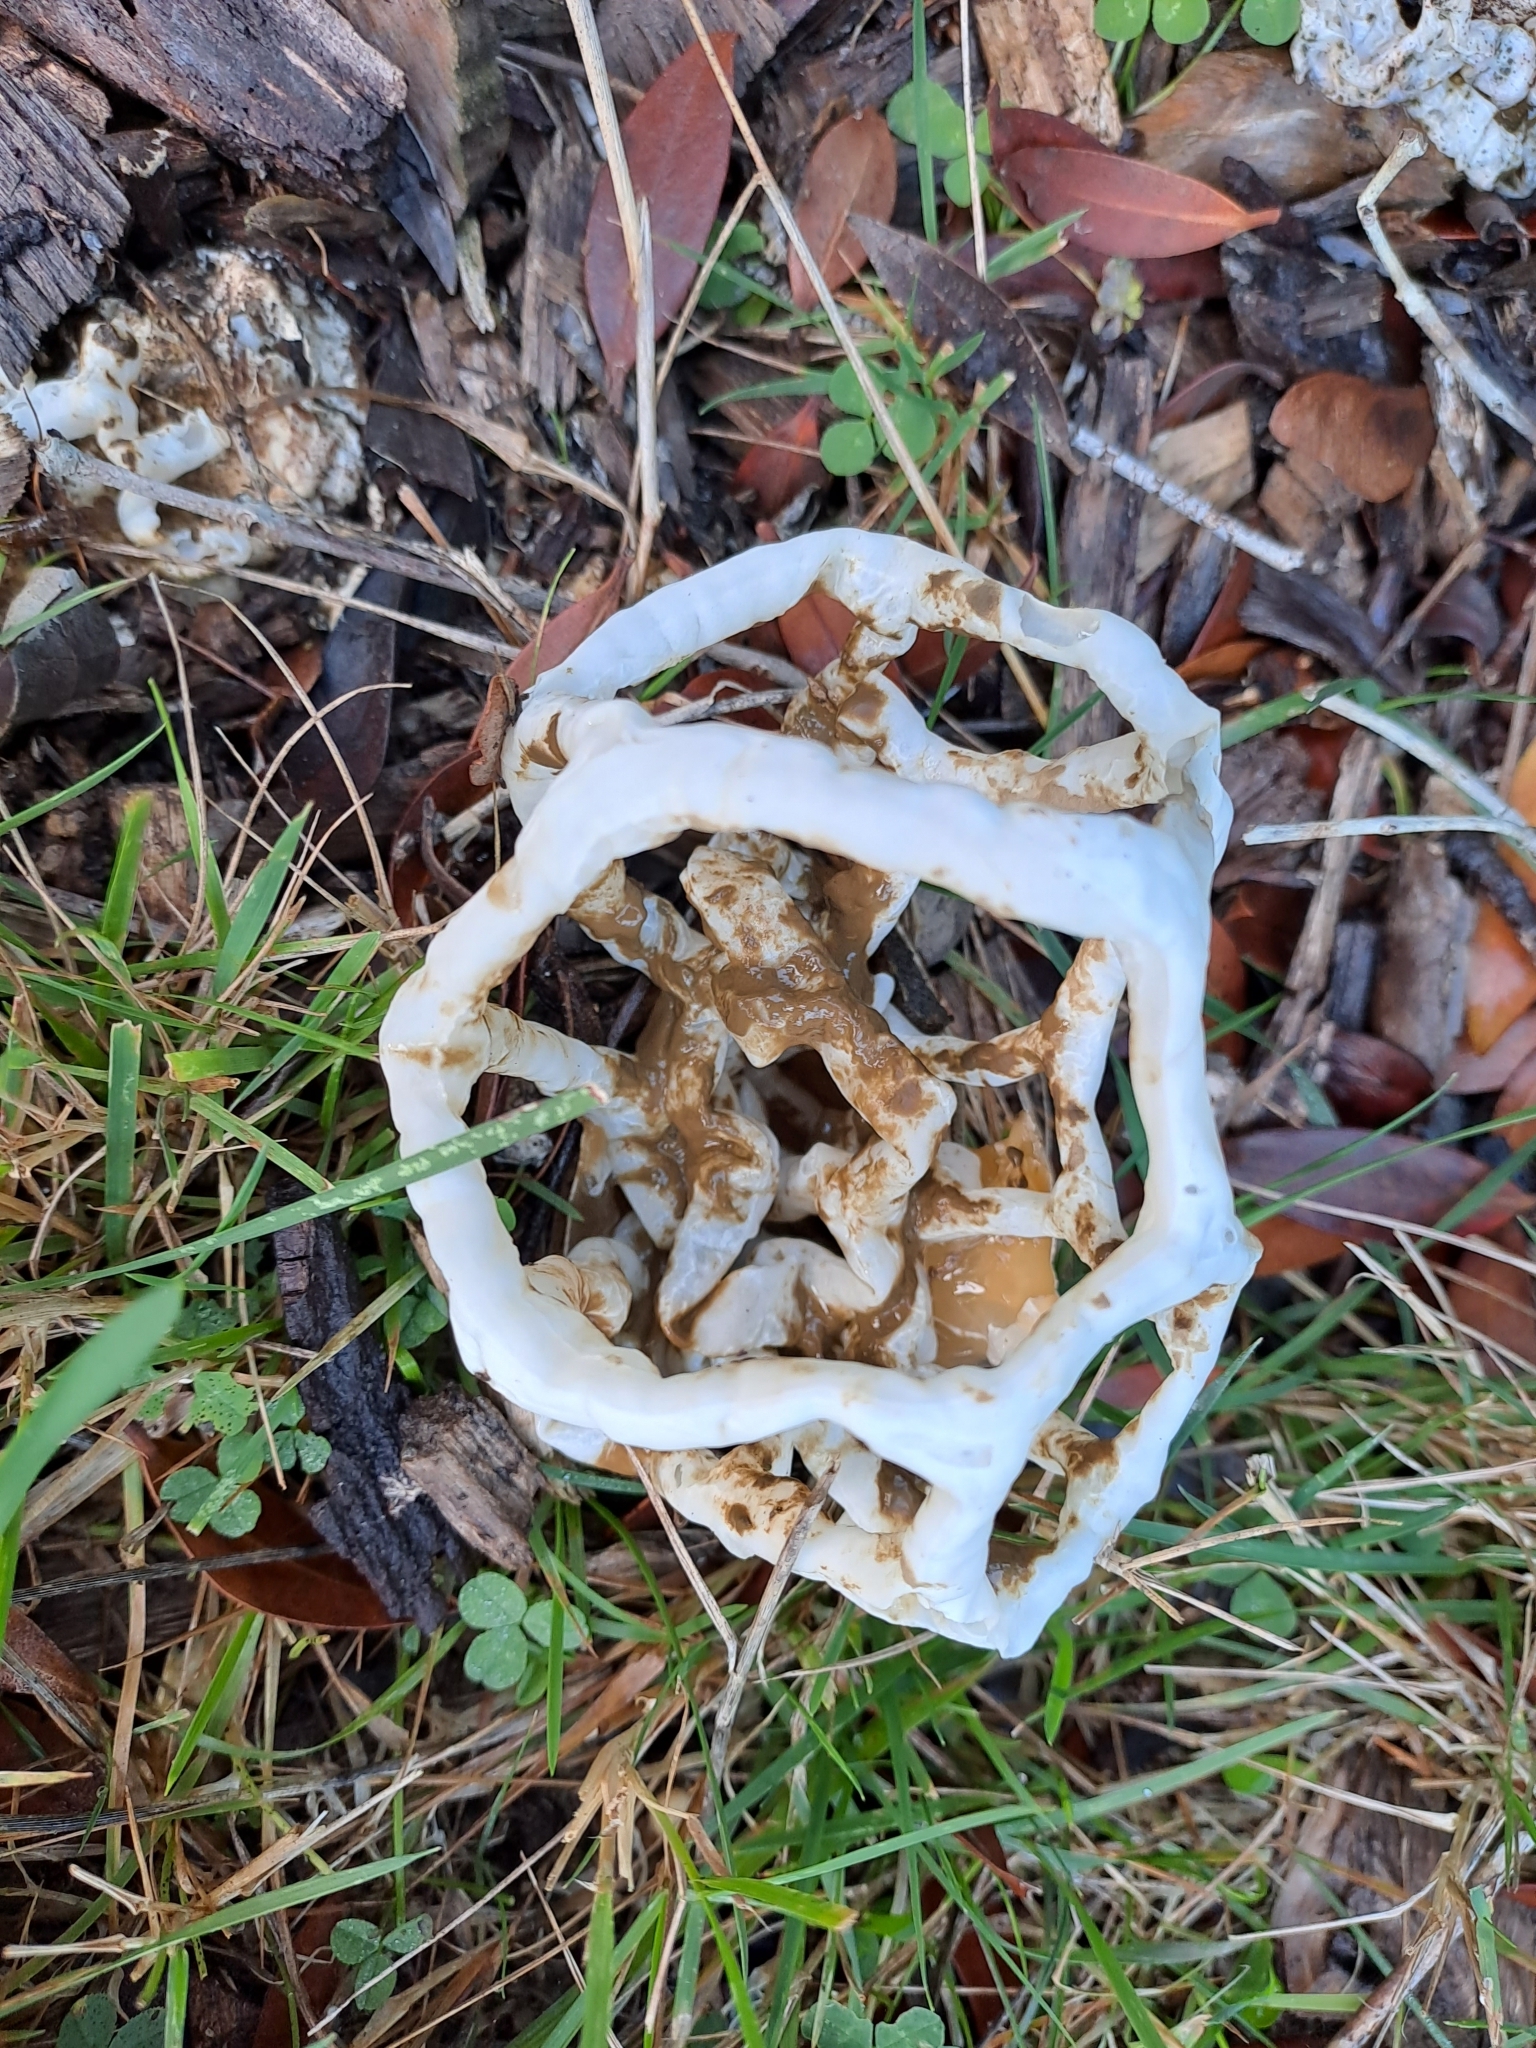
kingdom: Fungi
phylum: Basidiomycota
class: Agaricomycetes
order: Phallales
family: Phallaceae
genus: Ileodictyon
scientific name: Ileodictyon cibarium
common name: Basket fungus
